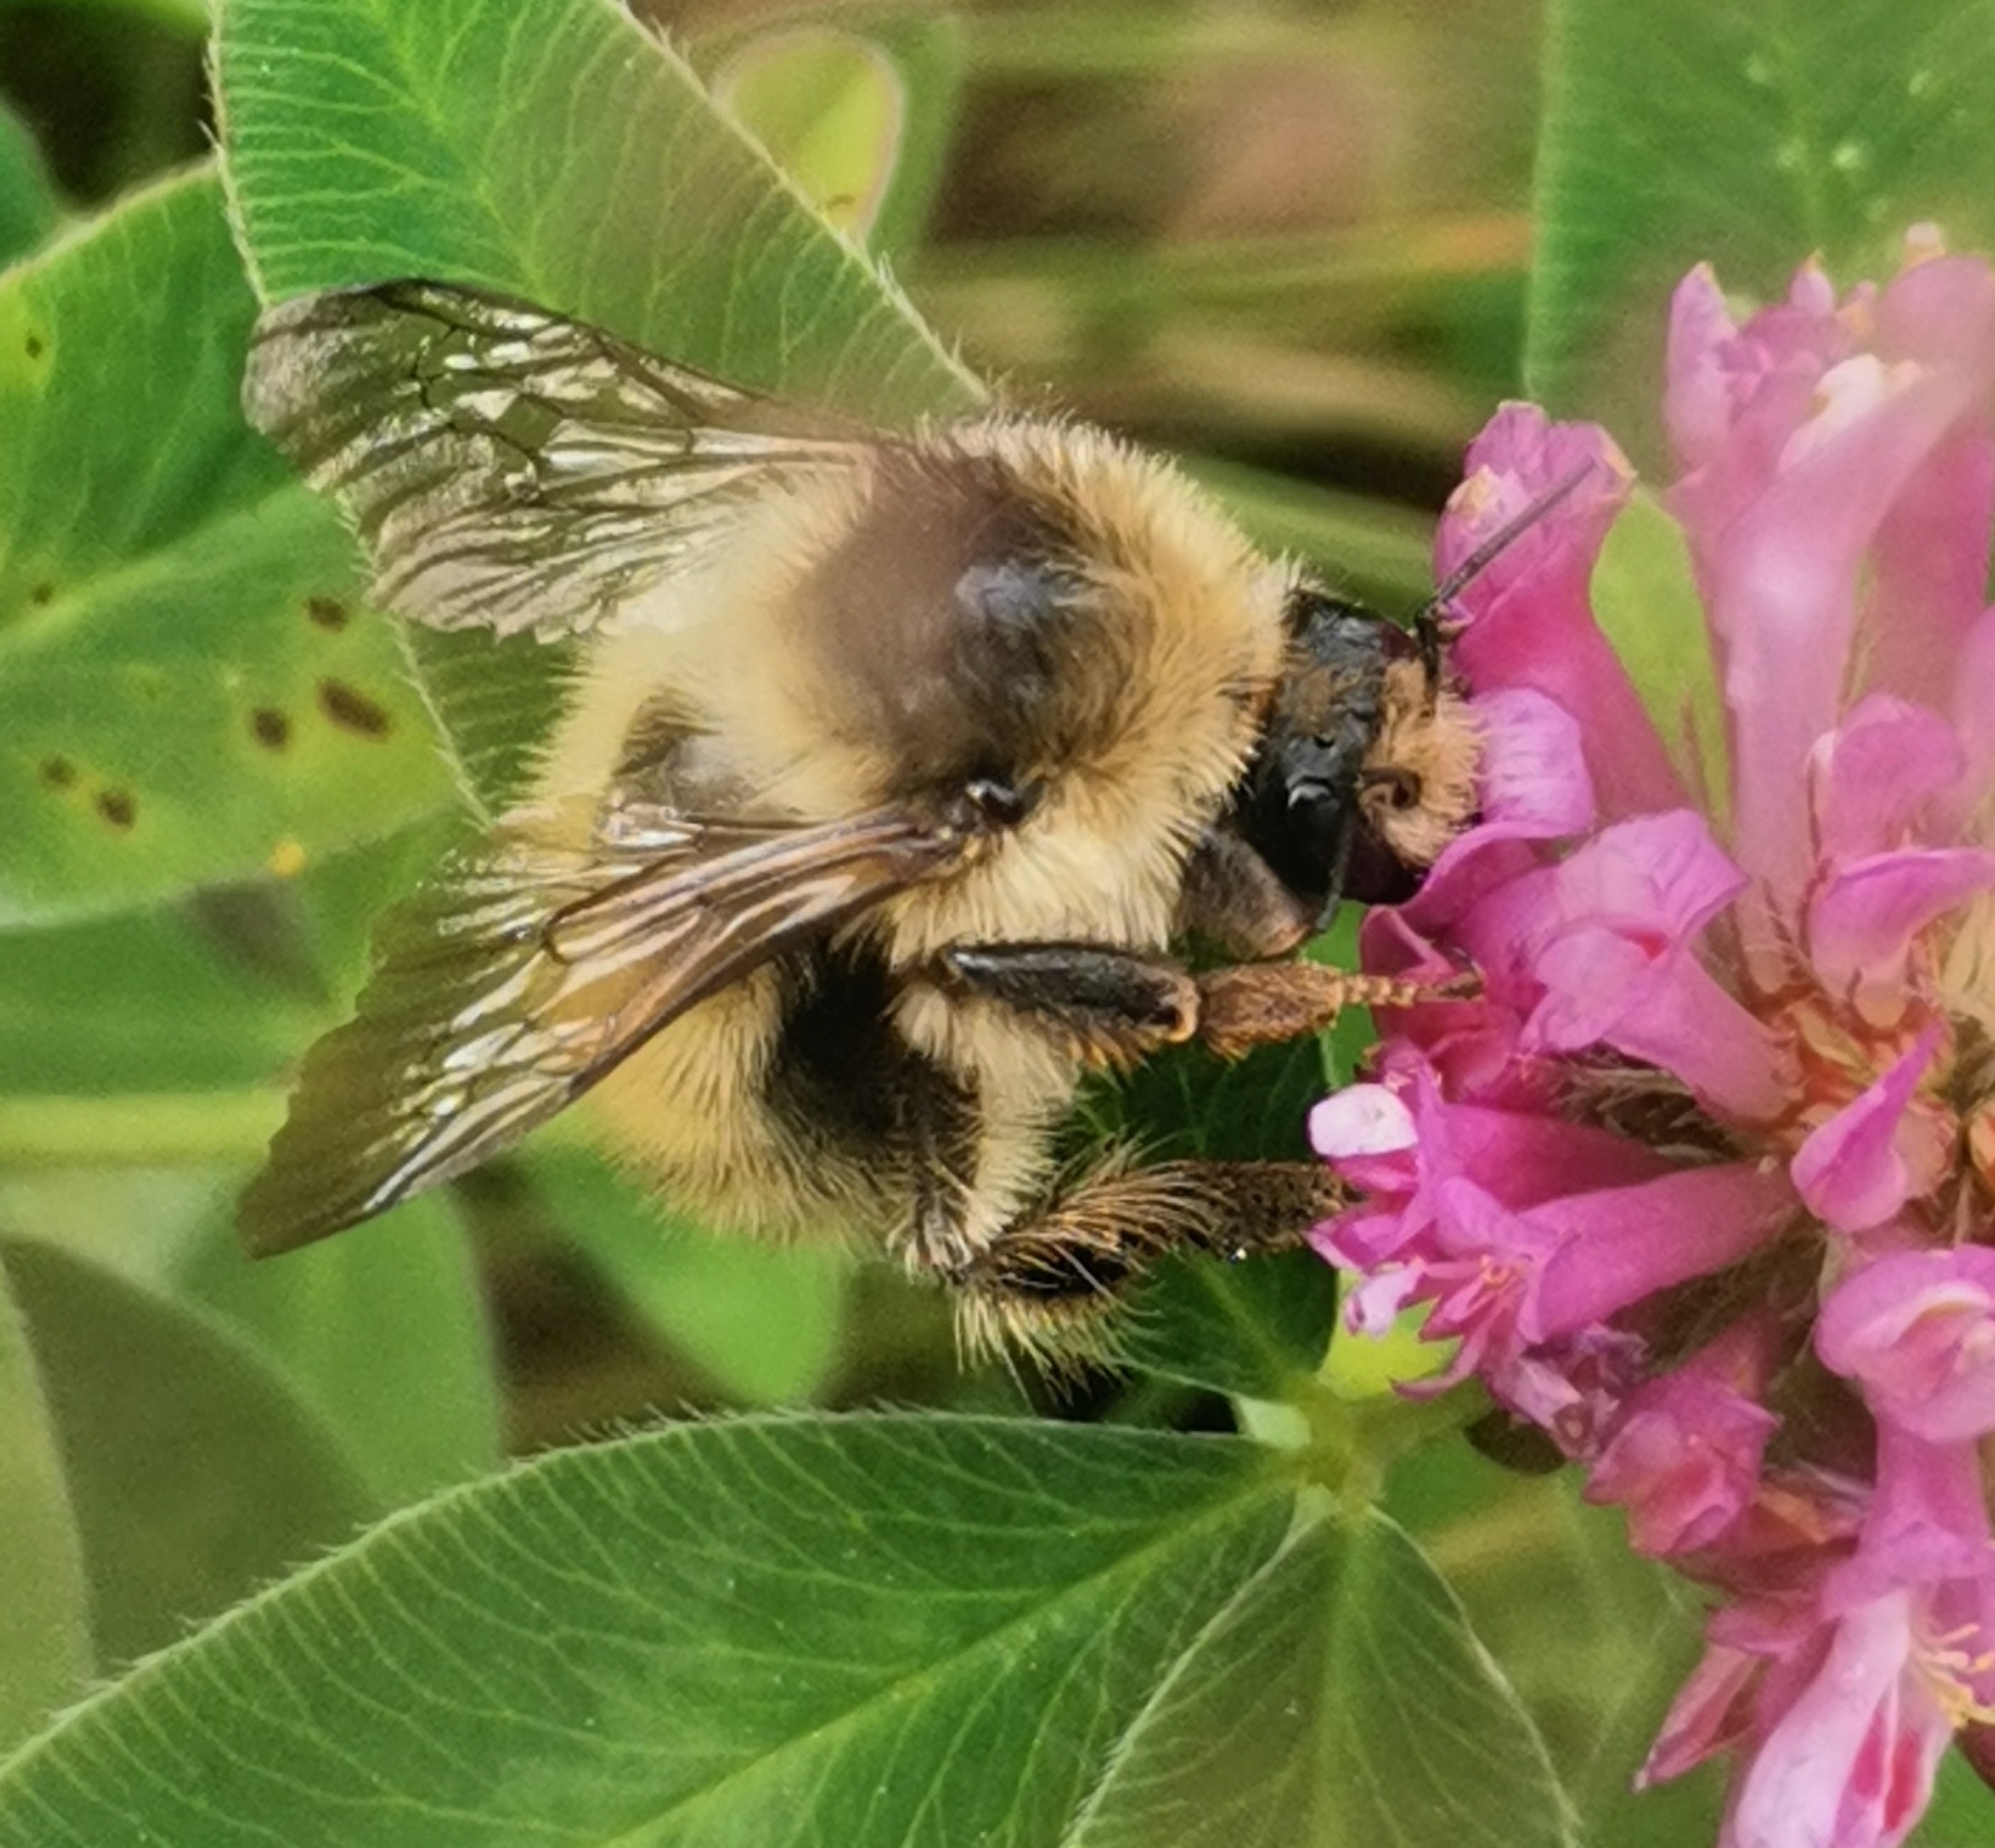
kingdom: Animalia
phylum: Arthropoda
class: Insecta
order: Hymenoptera
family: Apidae
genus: Bombus
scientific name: Bombus veteranus
